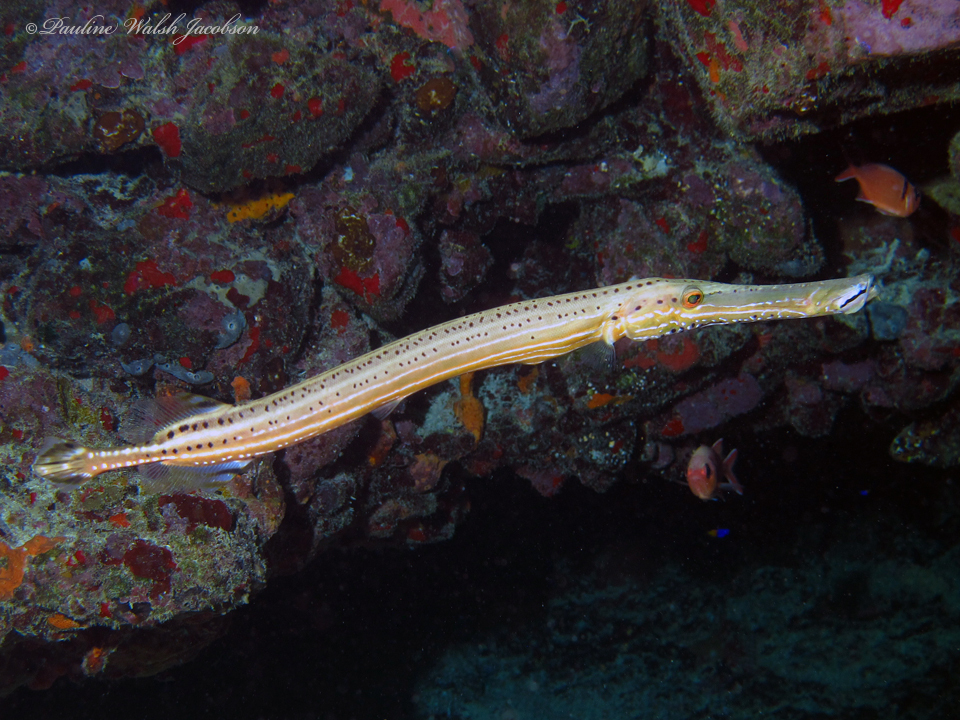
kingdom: Animalia
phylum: Chordata
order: Syngnathiformes
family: Aulostomidae
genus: Aulostomus
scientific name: Aulostomus maculatus
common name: West atlantic trumpetfish
